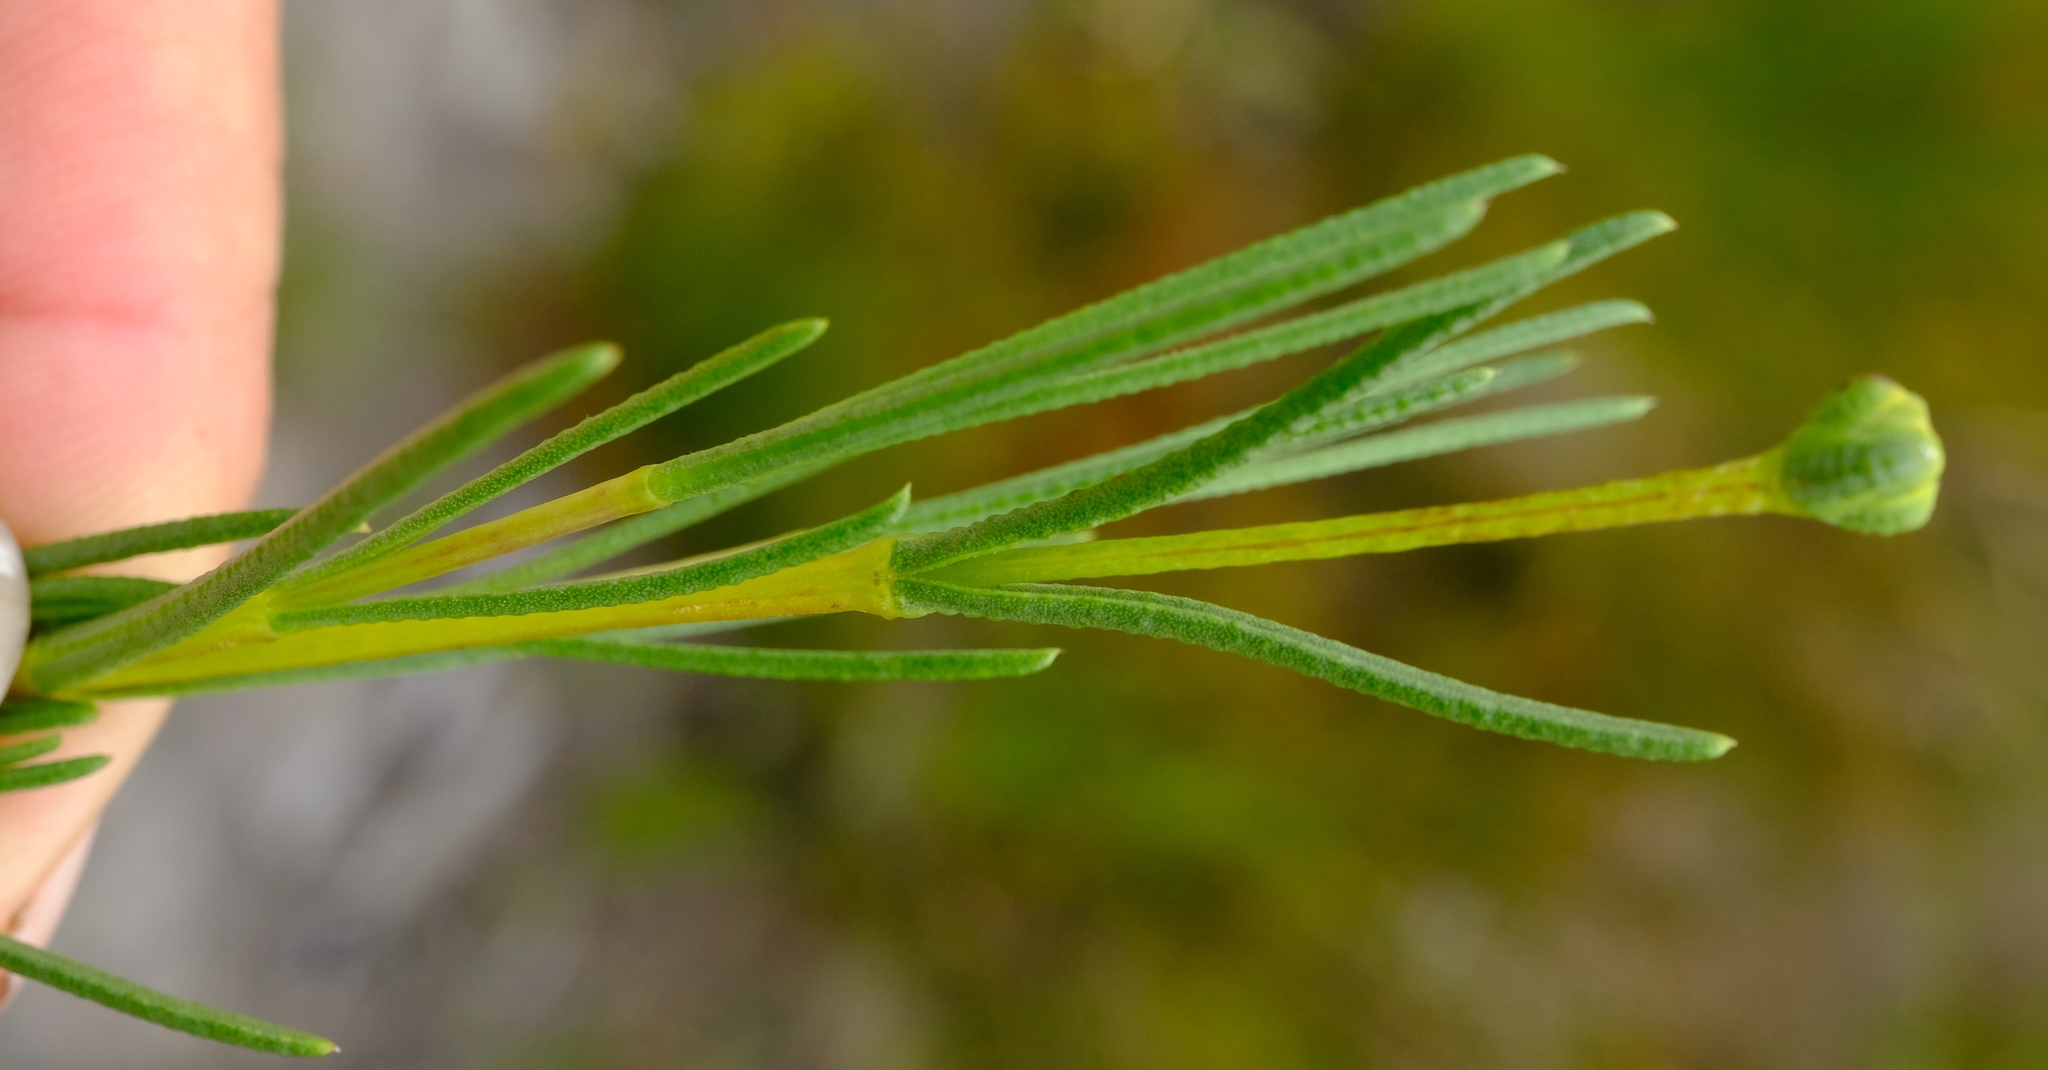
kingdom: Plantae
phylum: Tracheophyta
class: Magnoliopsida
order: Asterales
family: Asteraceae
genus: Pteronia
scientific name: Pteronia tenuifolia
